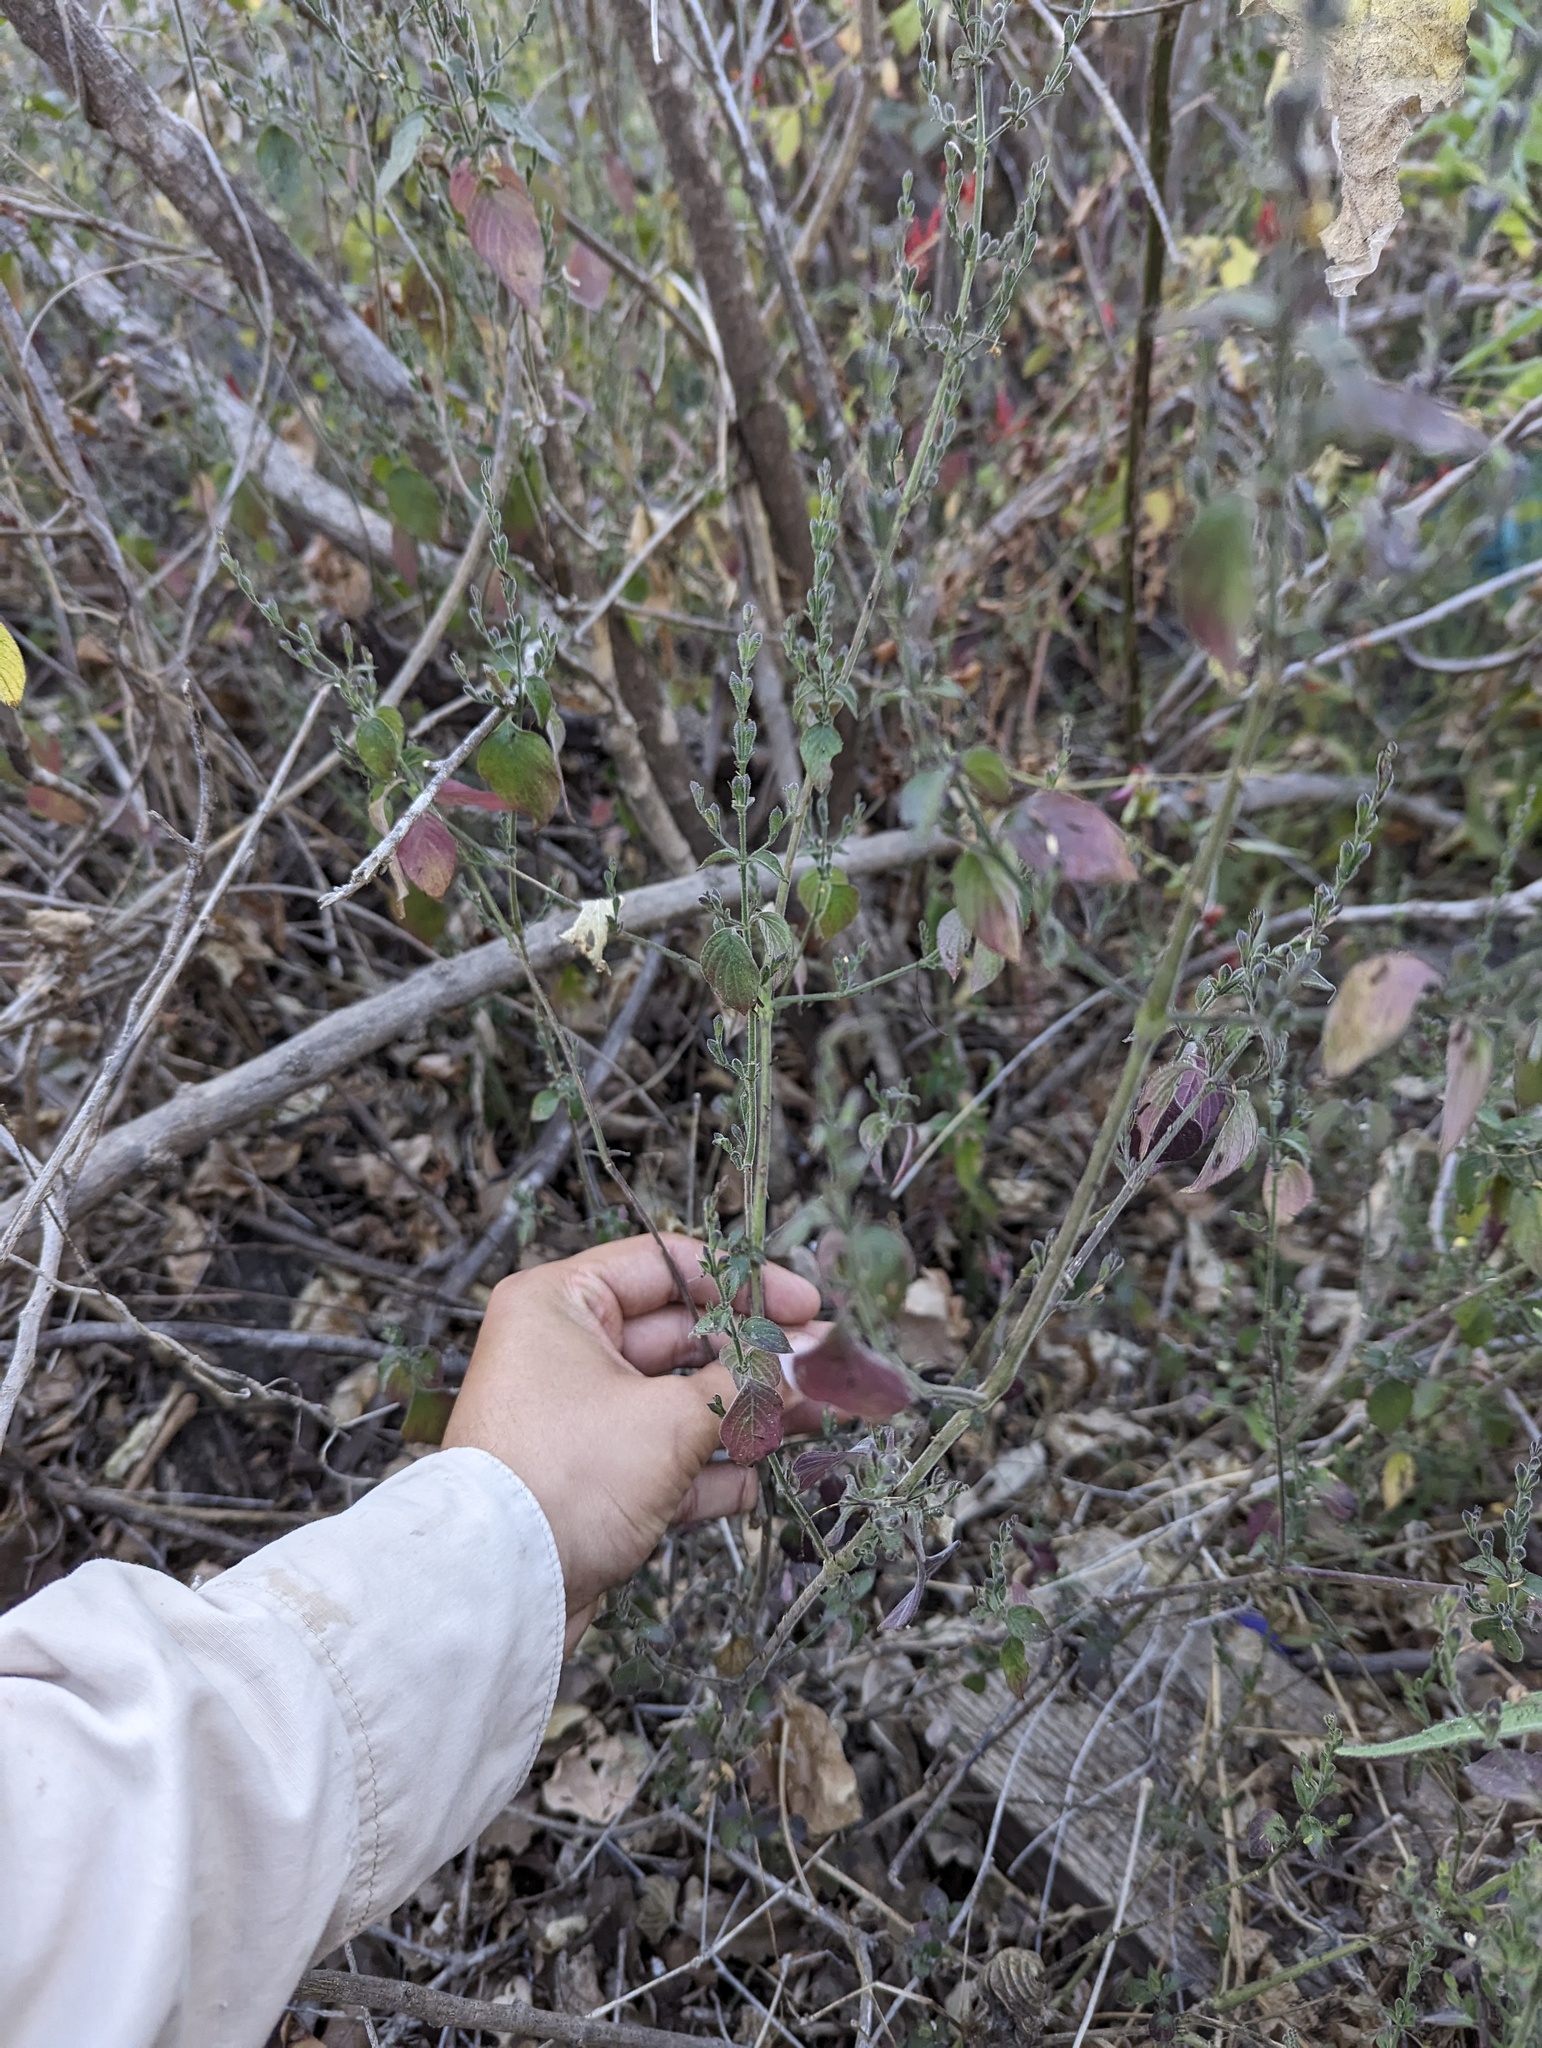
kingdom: Plantae
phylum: Tracheophyta
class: Magnoliopsida
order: Lamiales
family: Acanthaceae
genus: Henrya
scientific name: Henrya insularis
